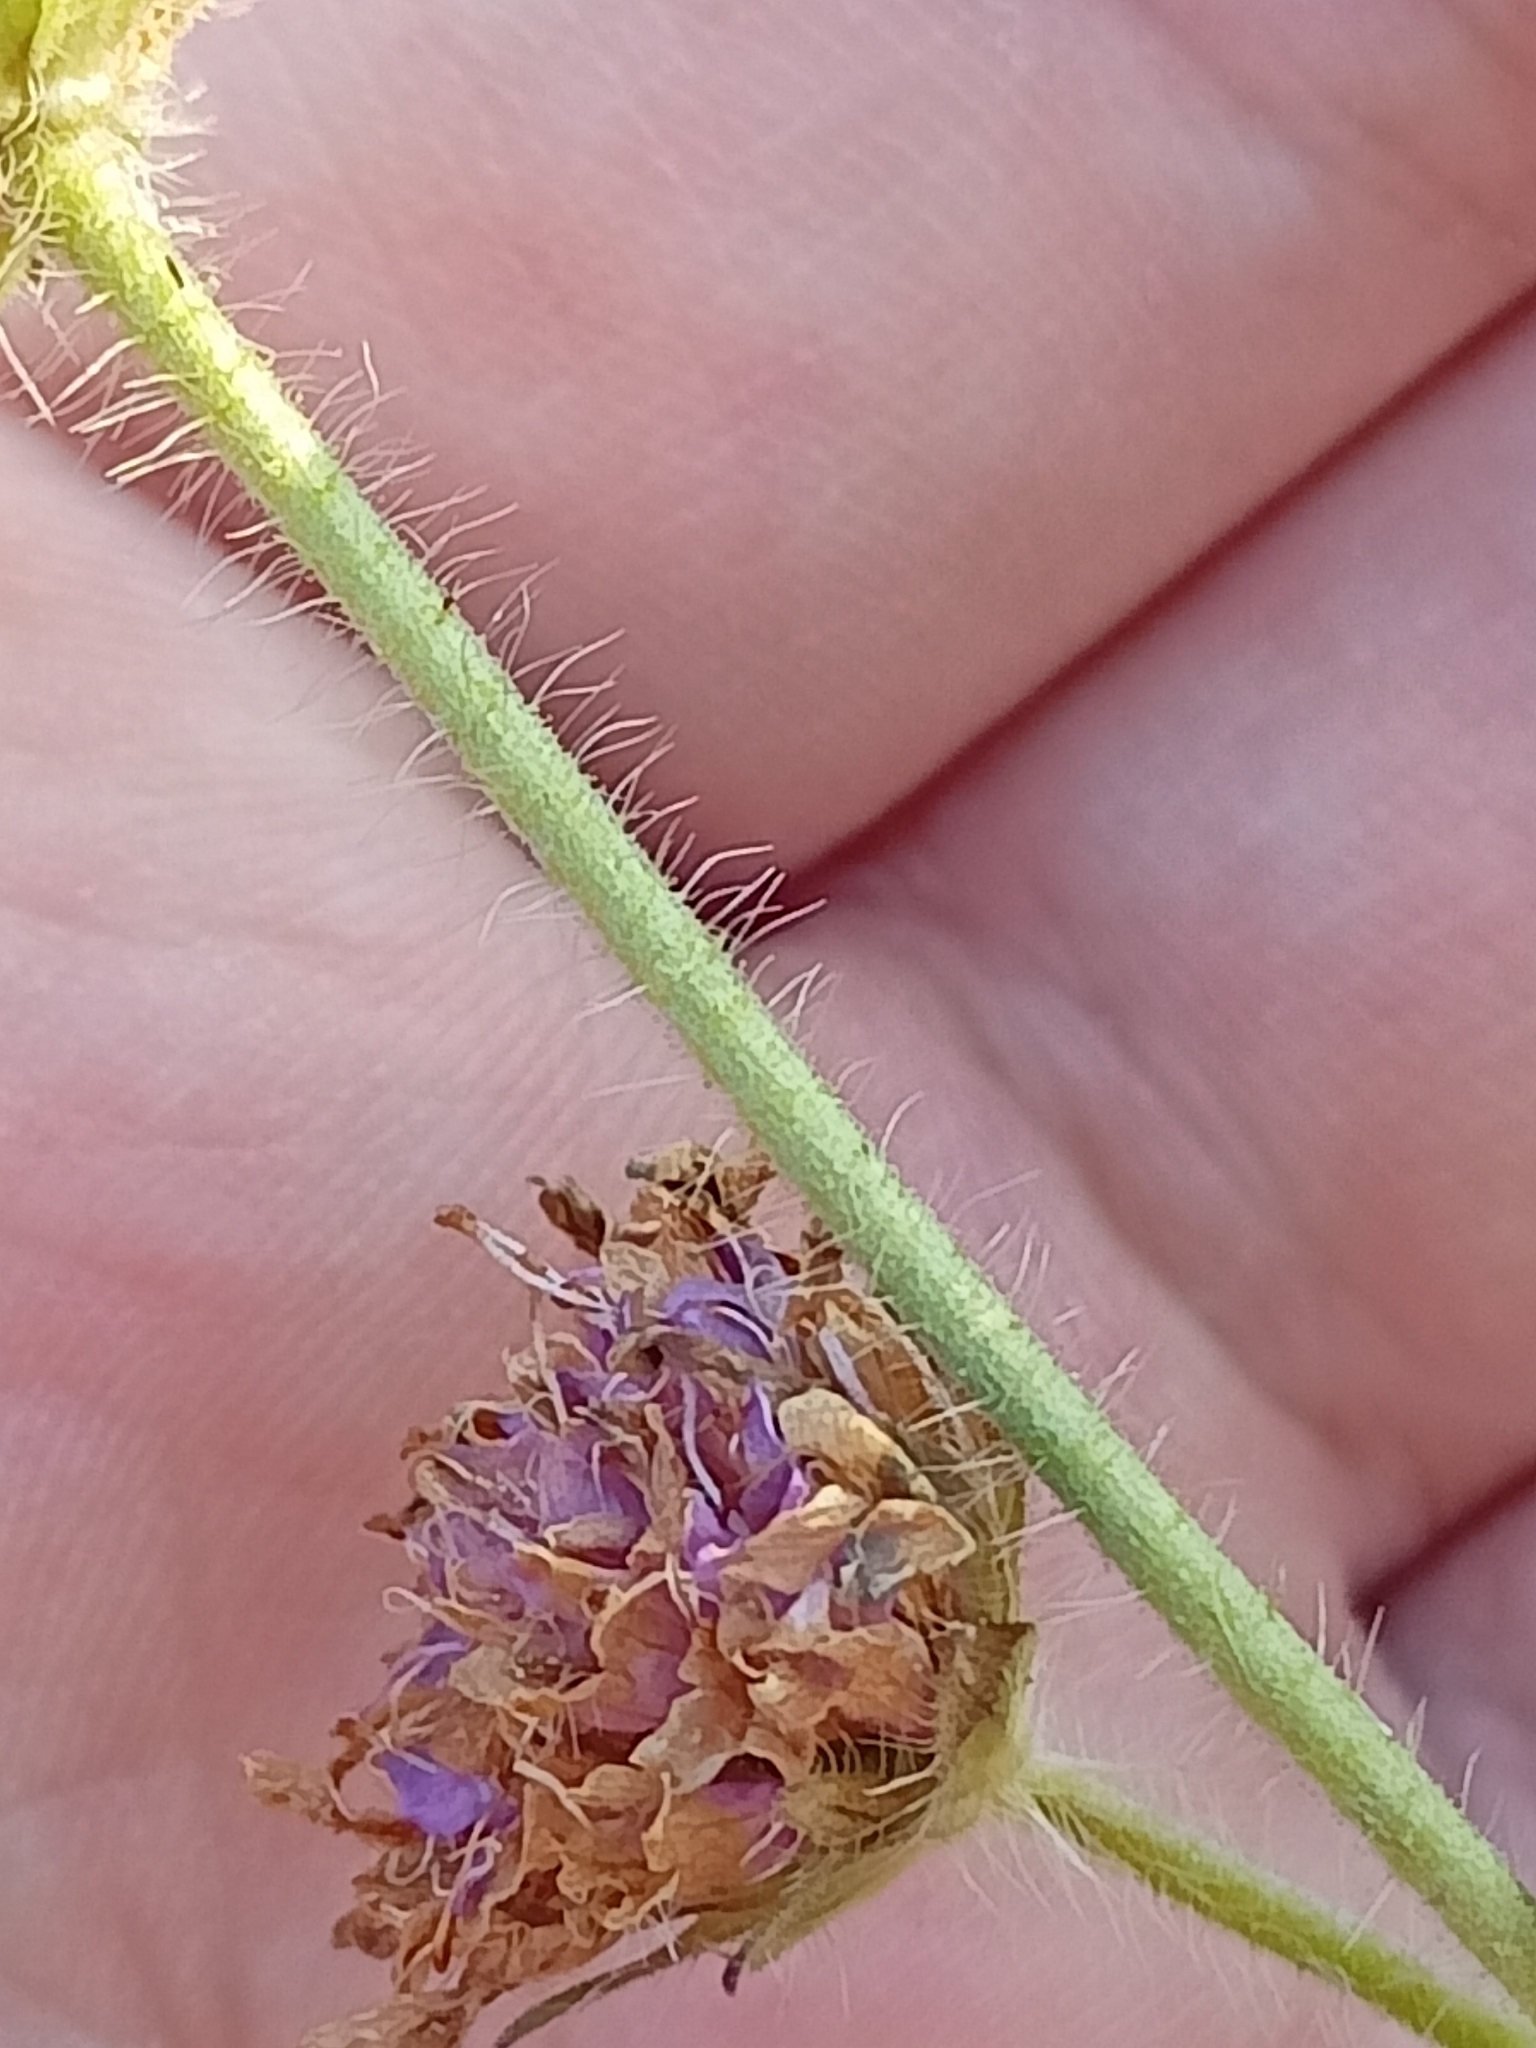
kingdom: Plantae
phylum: Tracheophyta
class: Magnoliopsida
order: Dipsacales
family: Caprifoliaceae
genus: Knautia
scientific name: Knautia arvensis
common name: Field scabiosa
